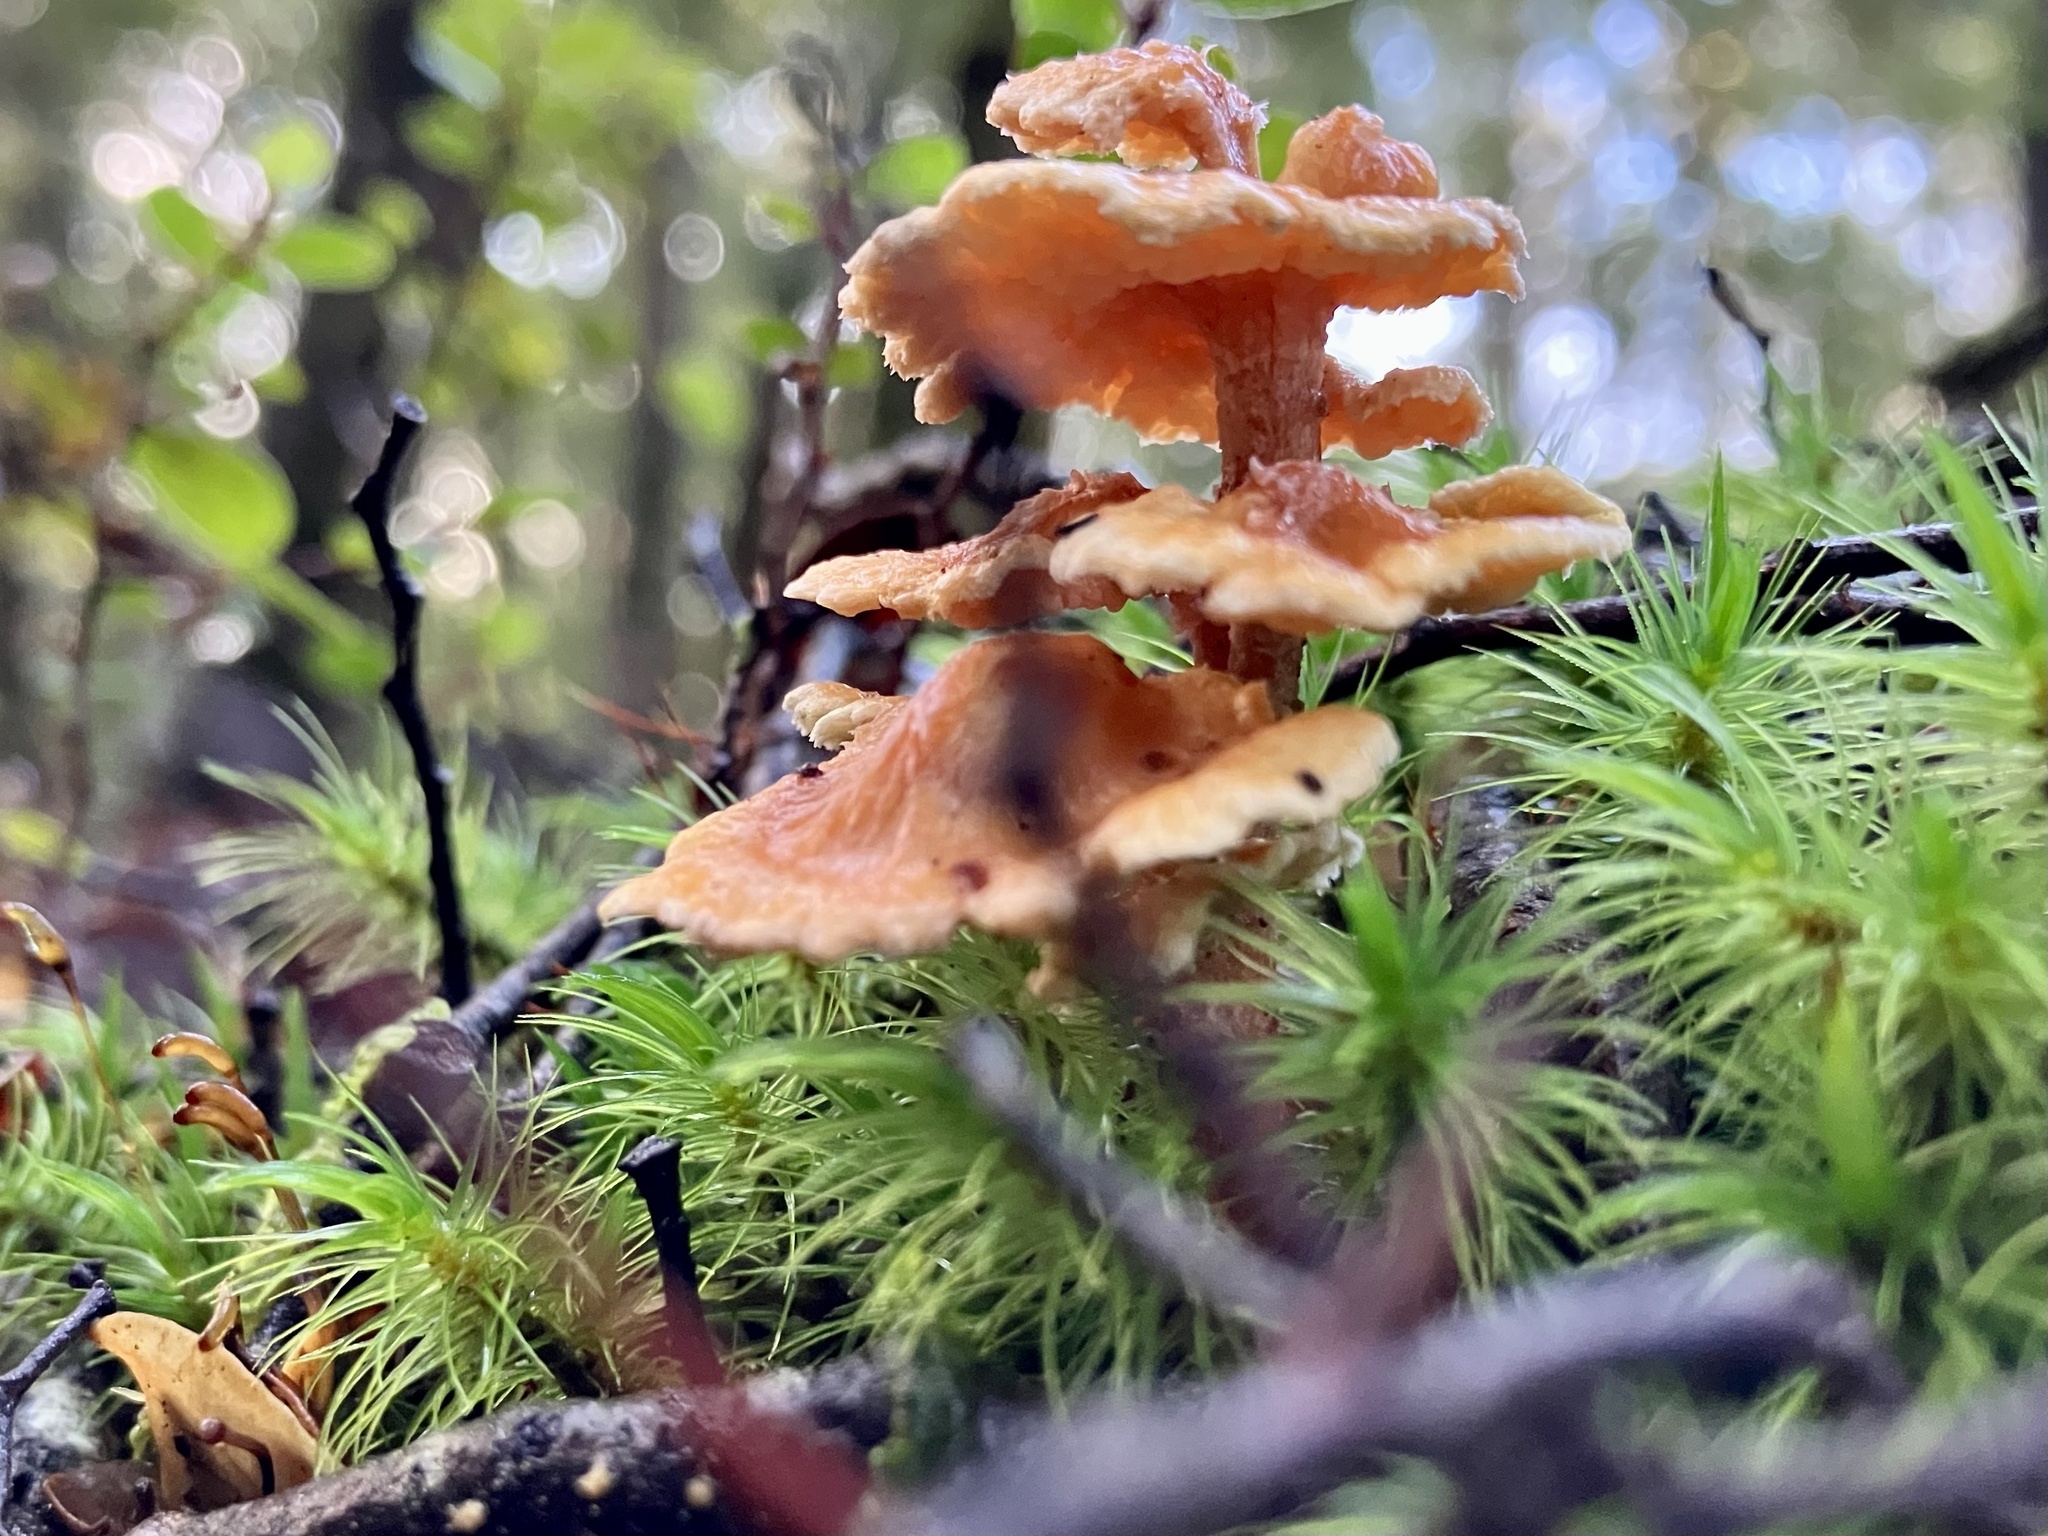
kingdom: Fungi
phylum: Basidiomycota
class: Agaricomycetes
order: Amylocorticiales
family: Amylocorticiaceae
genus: Podoserpula
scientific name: Podoserpula pusio
